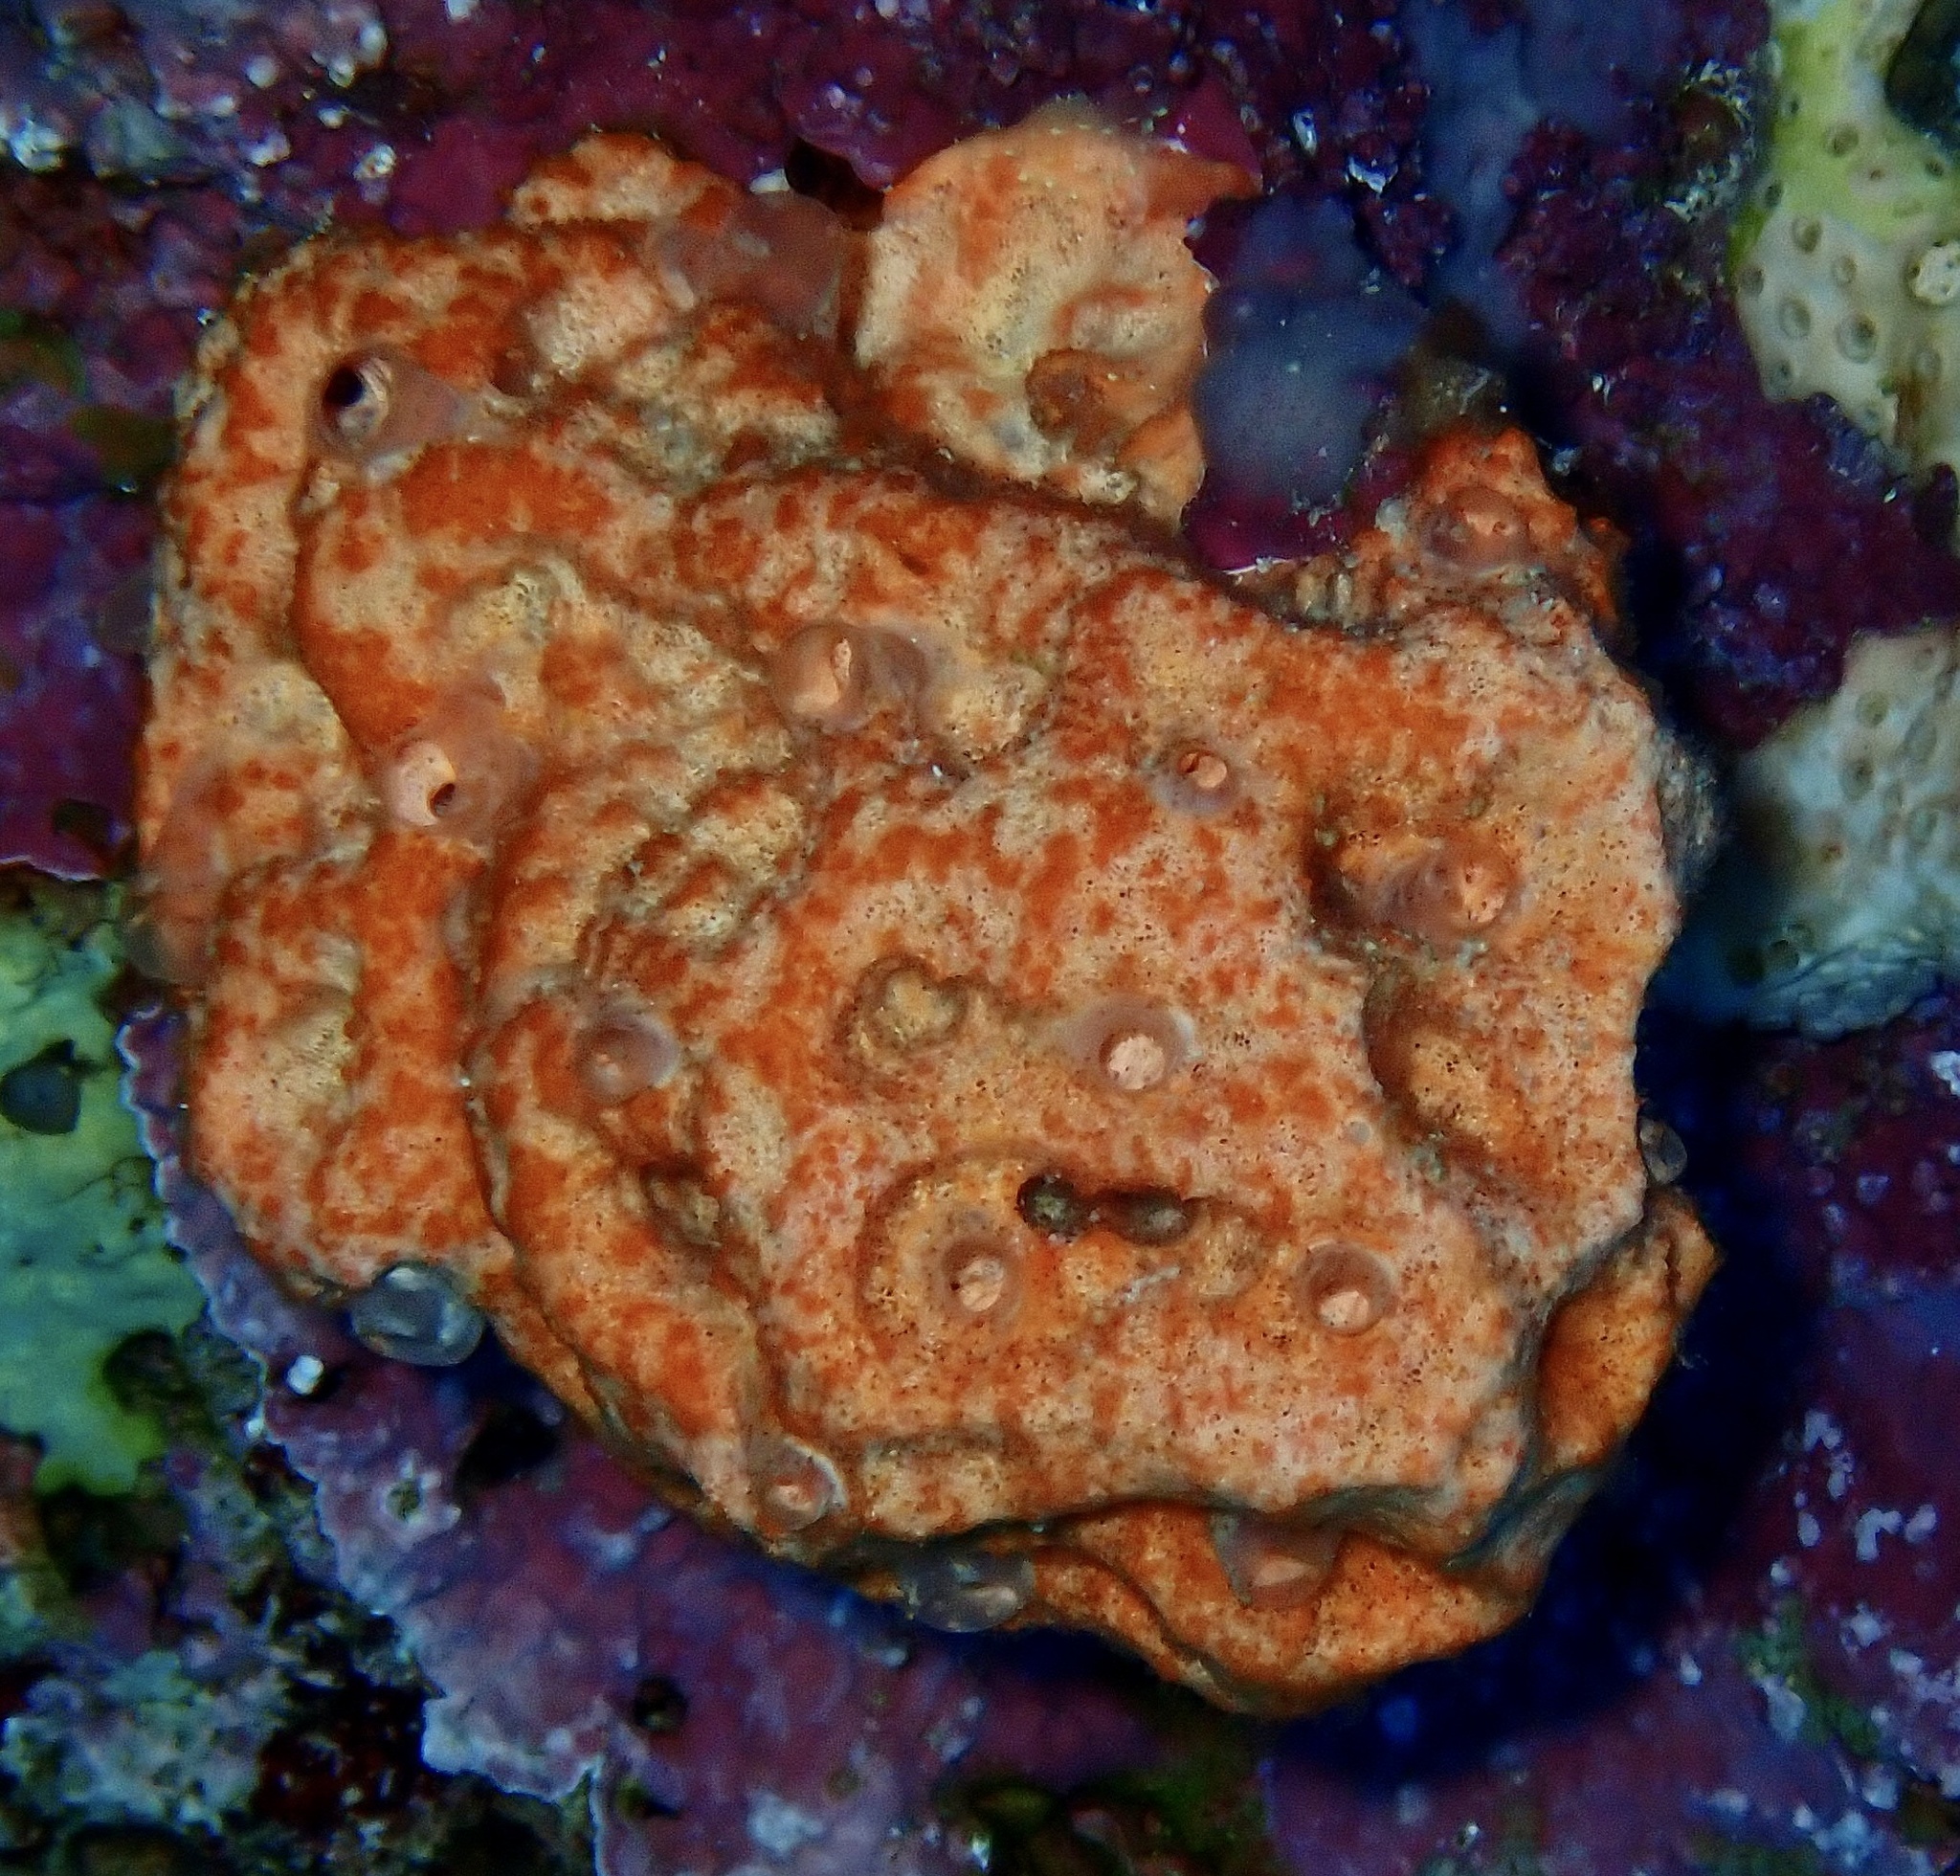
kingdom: Animalia
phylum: Porifera
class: Demospongiae
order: Scopalinida
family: Scopalinidae
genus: Stylissa
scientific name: Stylissa carteri
